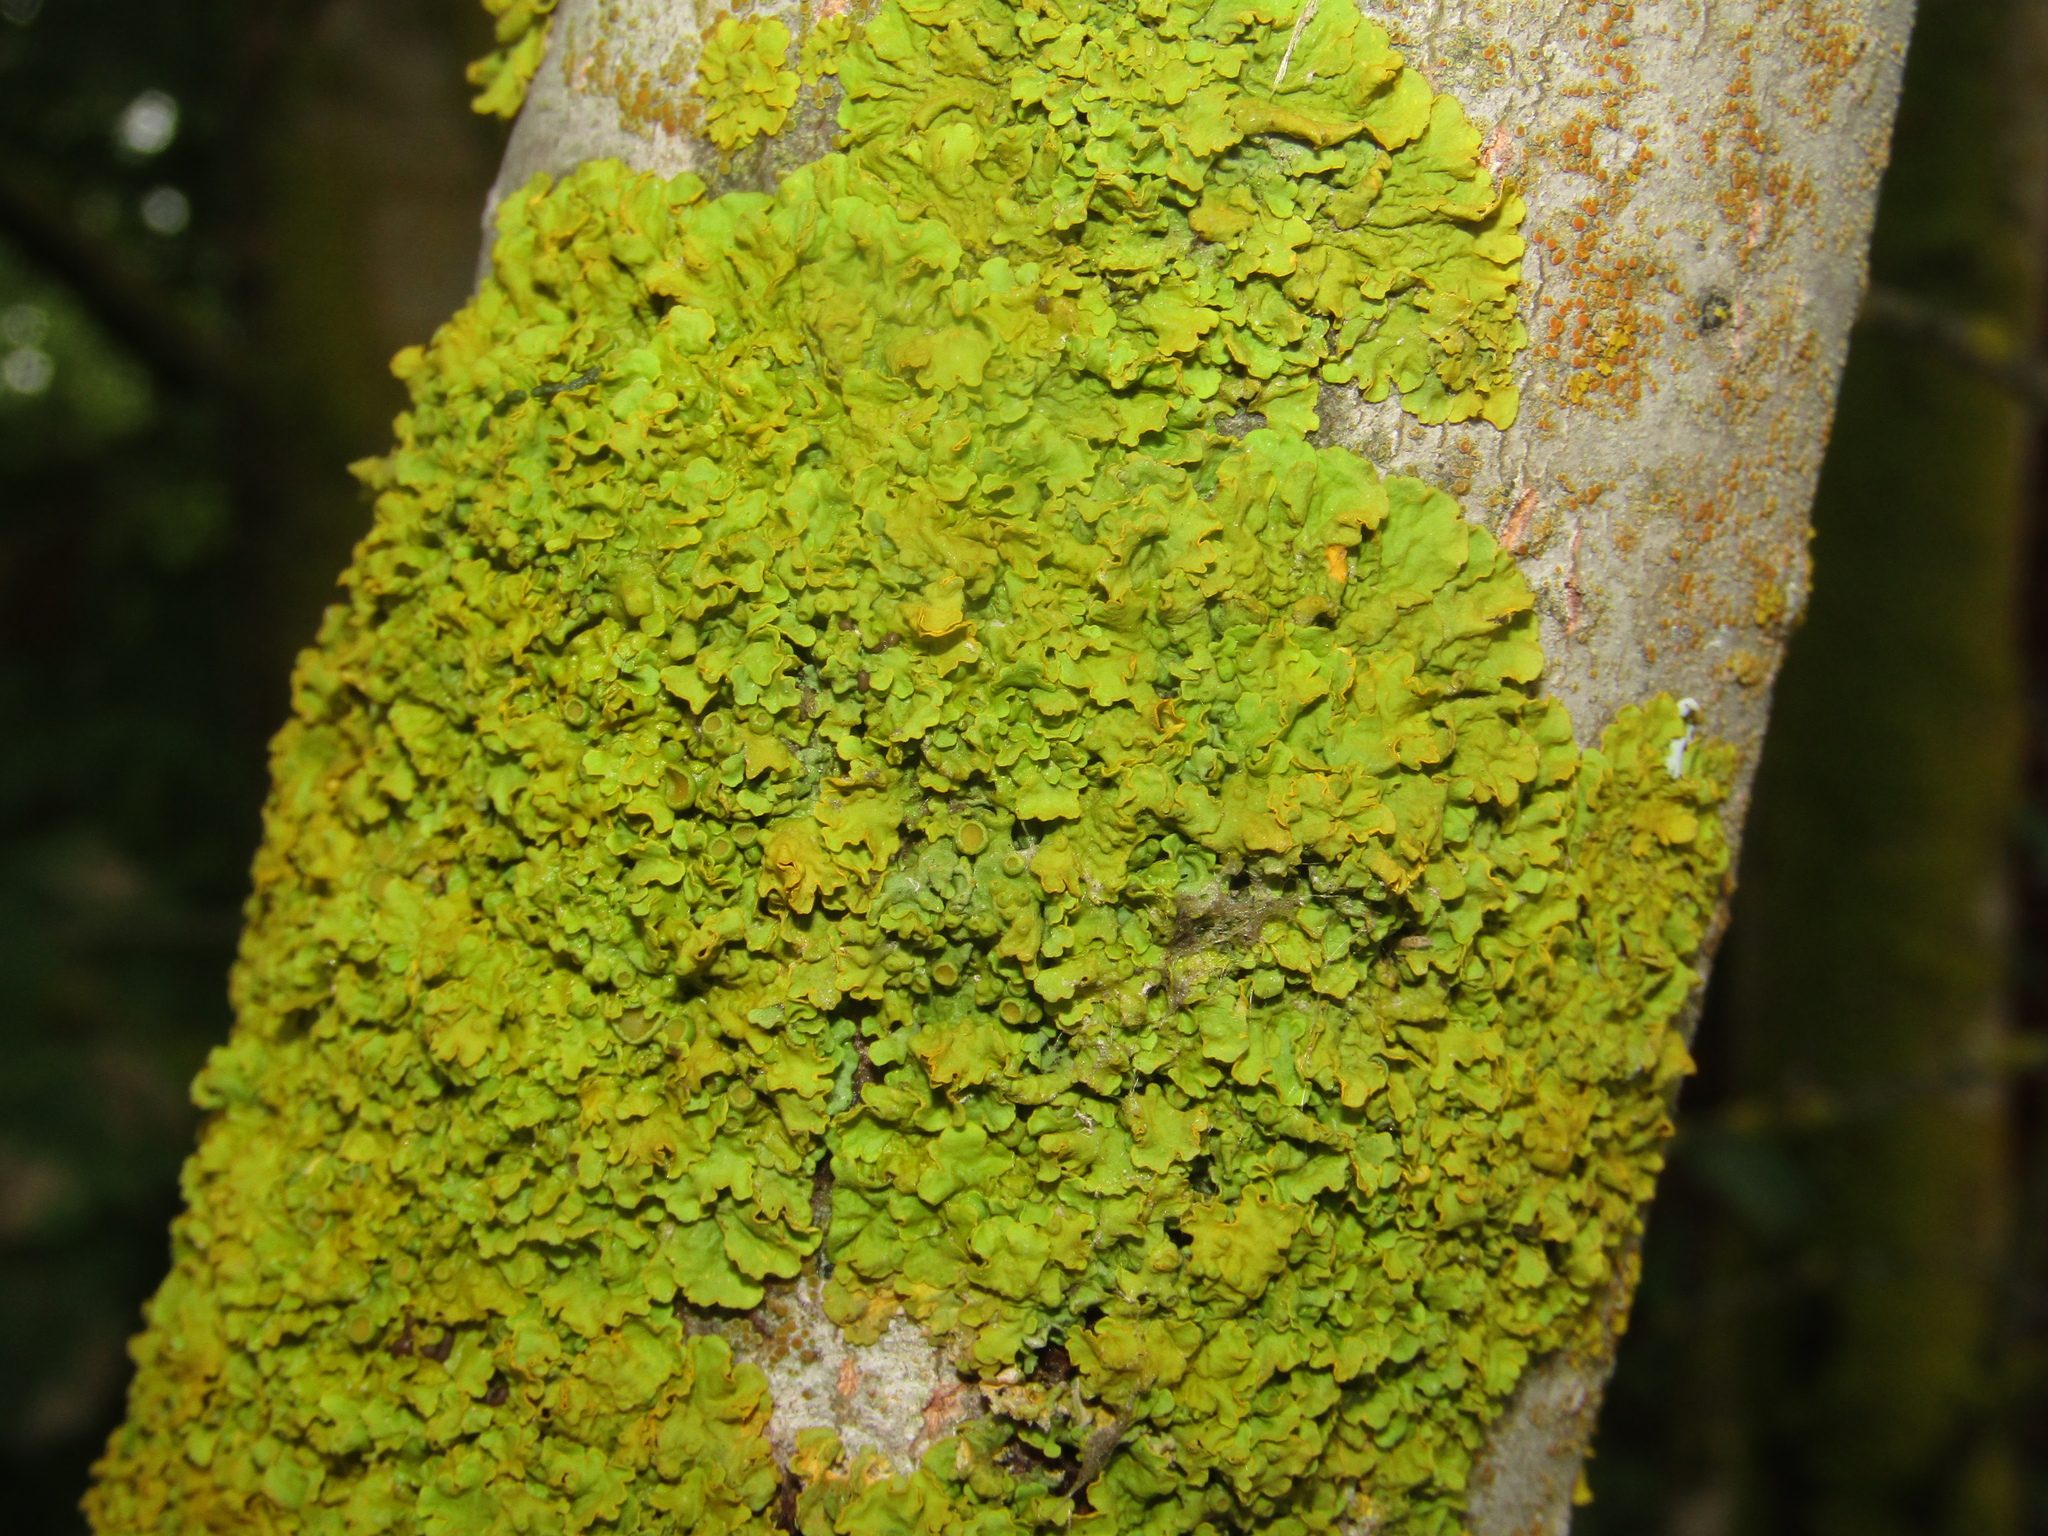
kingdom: Fungi
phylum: Ascomycota
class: Lecanoromycetes
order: Teloschistales
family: Teloschistaceae
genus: Xanthoria
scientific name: Xanthoria parietina
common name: Common orange lichen
